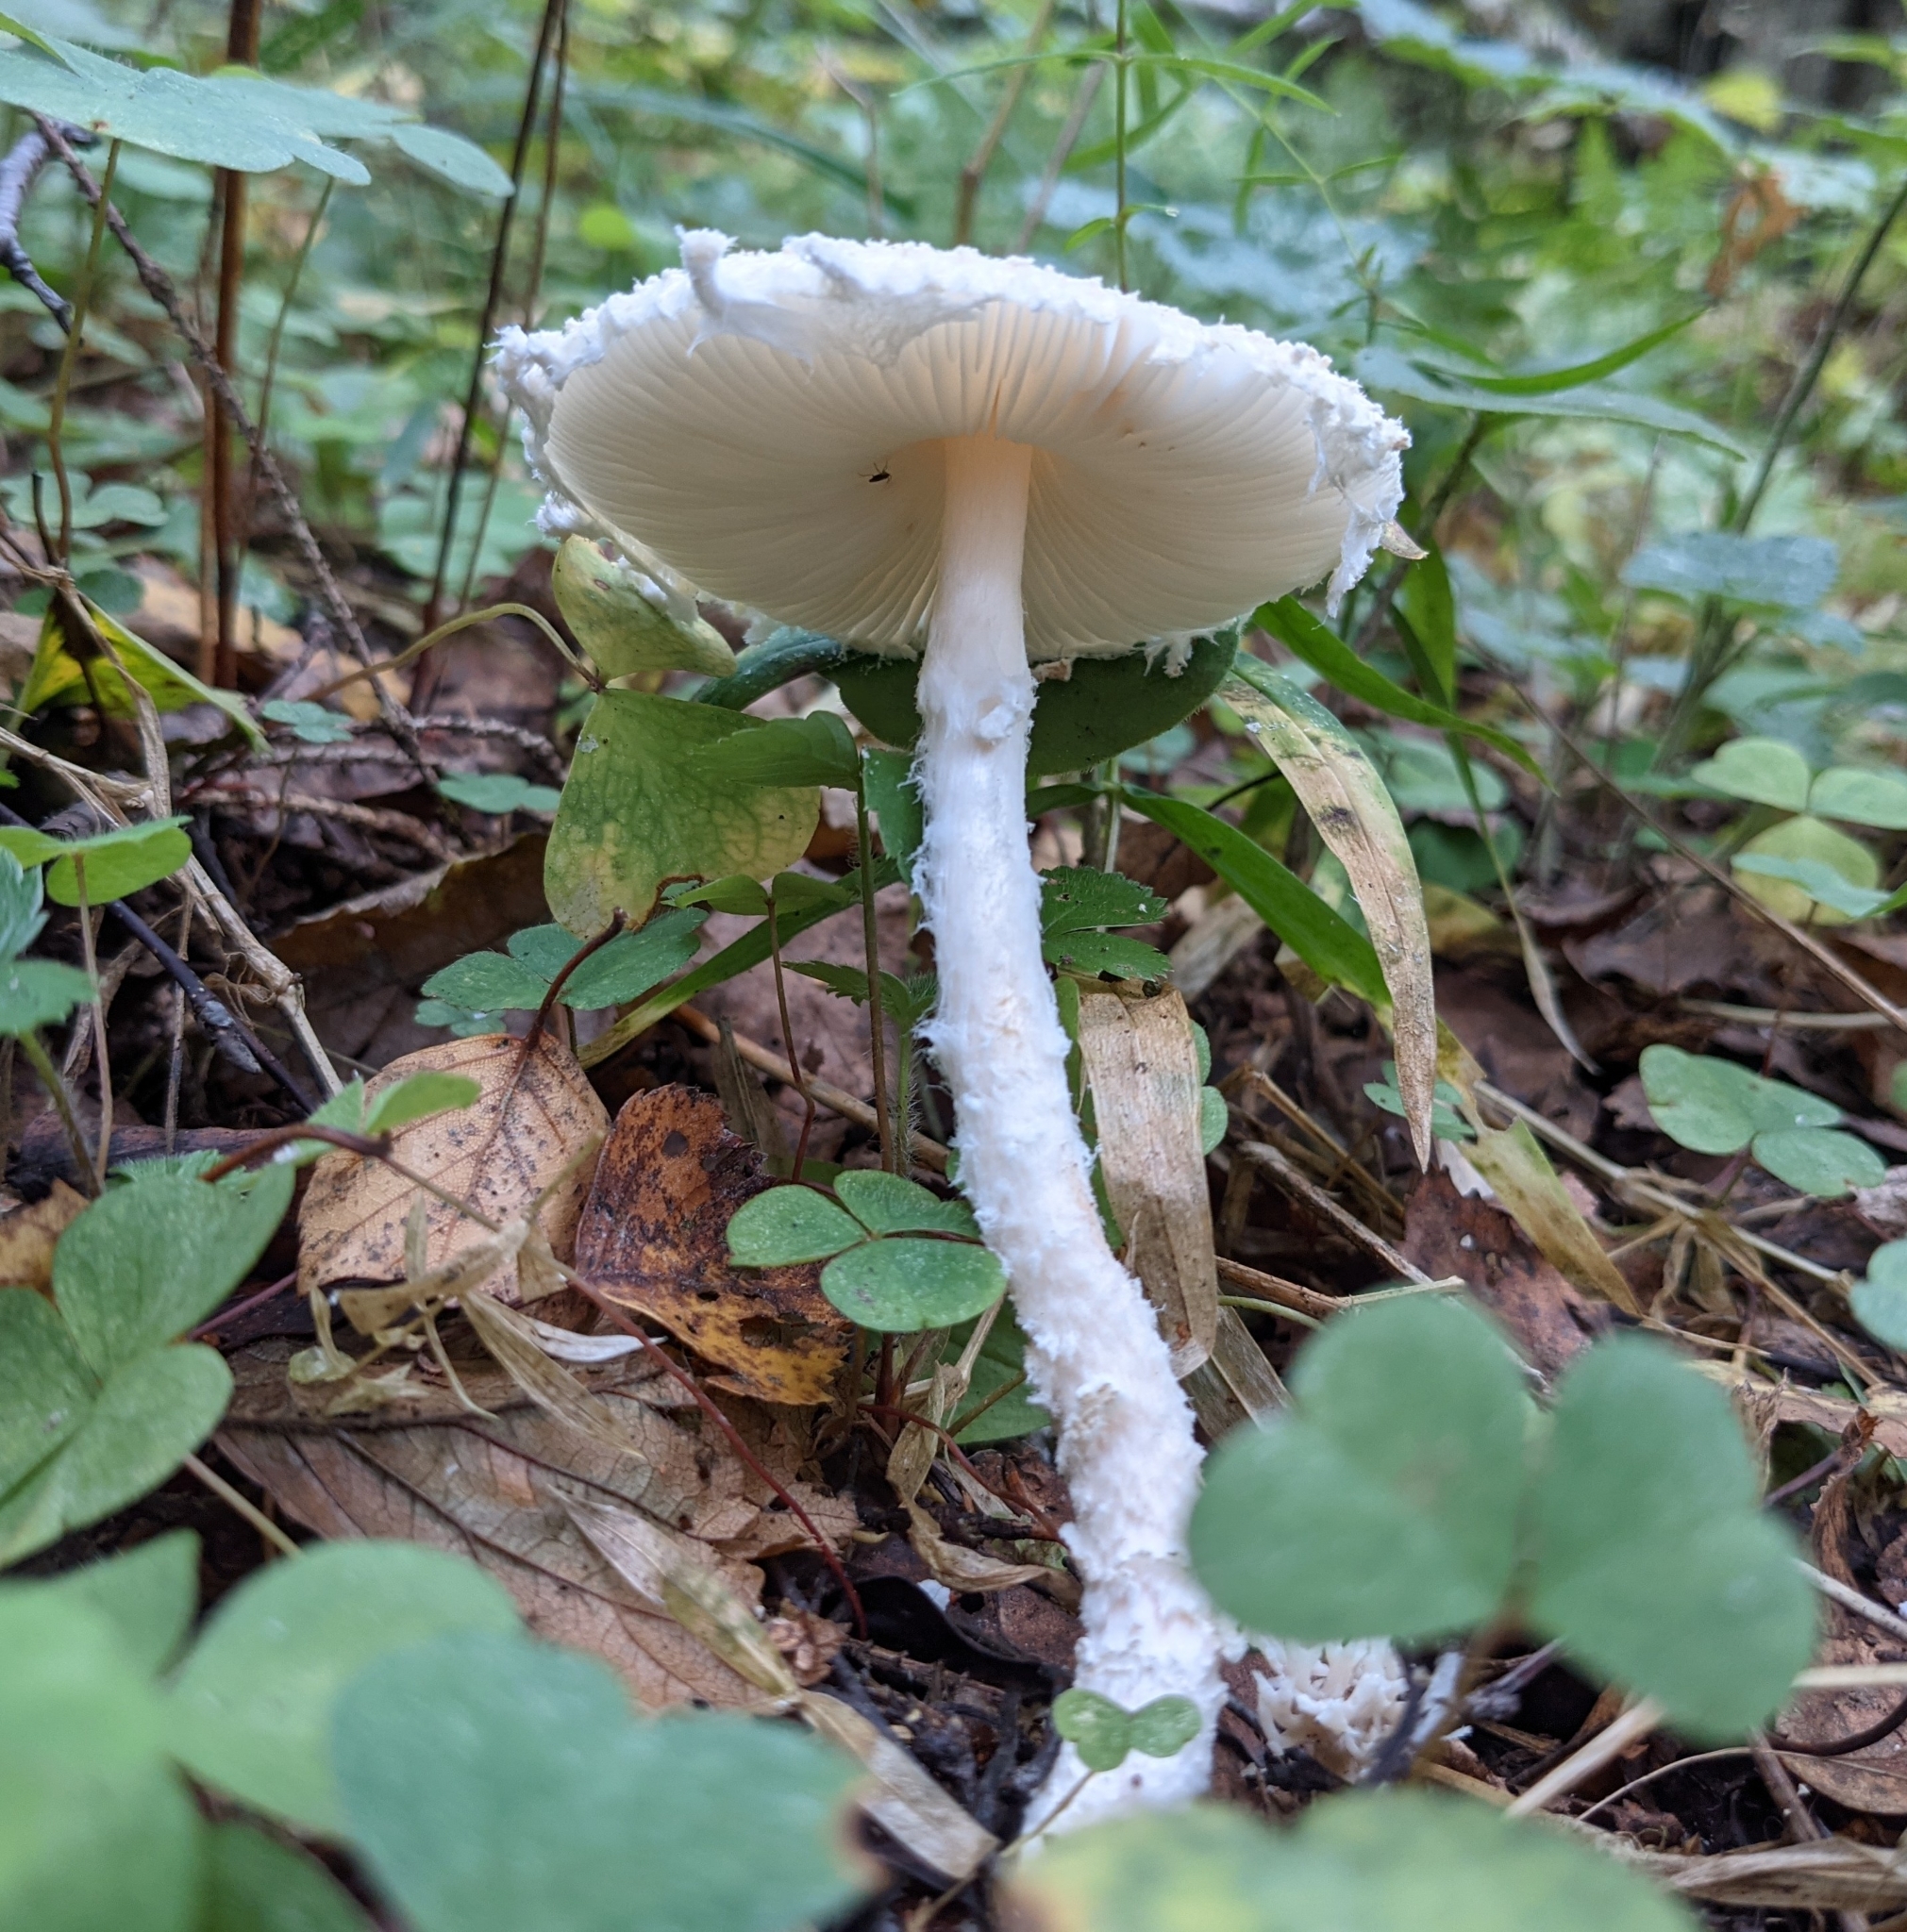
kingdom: Fungi
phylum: Basidiomycota
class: Agaricomycetes
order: Agaricales
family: Agaricaceae
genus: Lepiota
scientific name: Lepiota clypeolaria
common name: Shield dapperling
